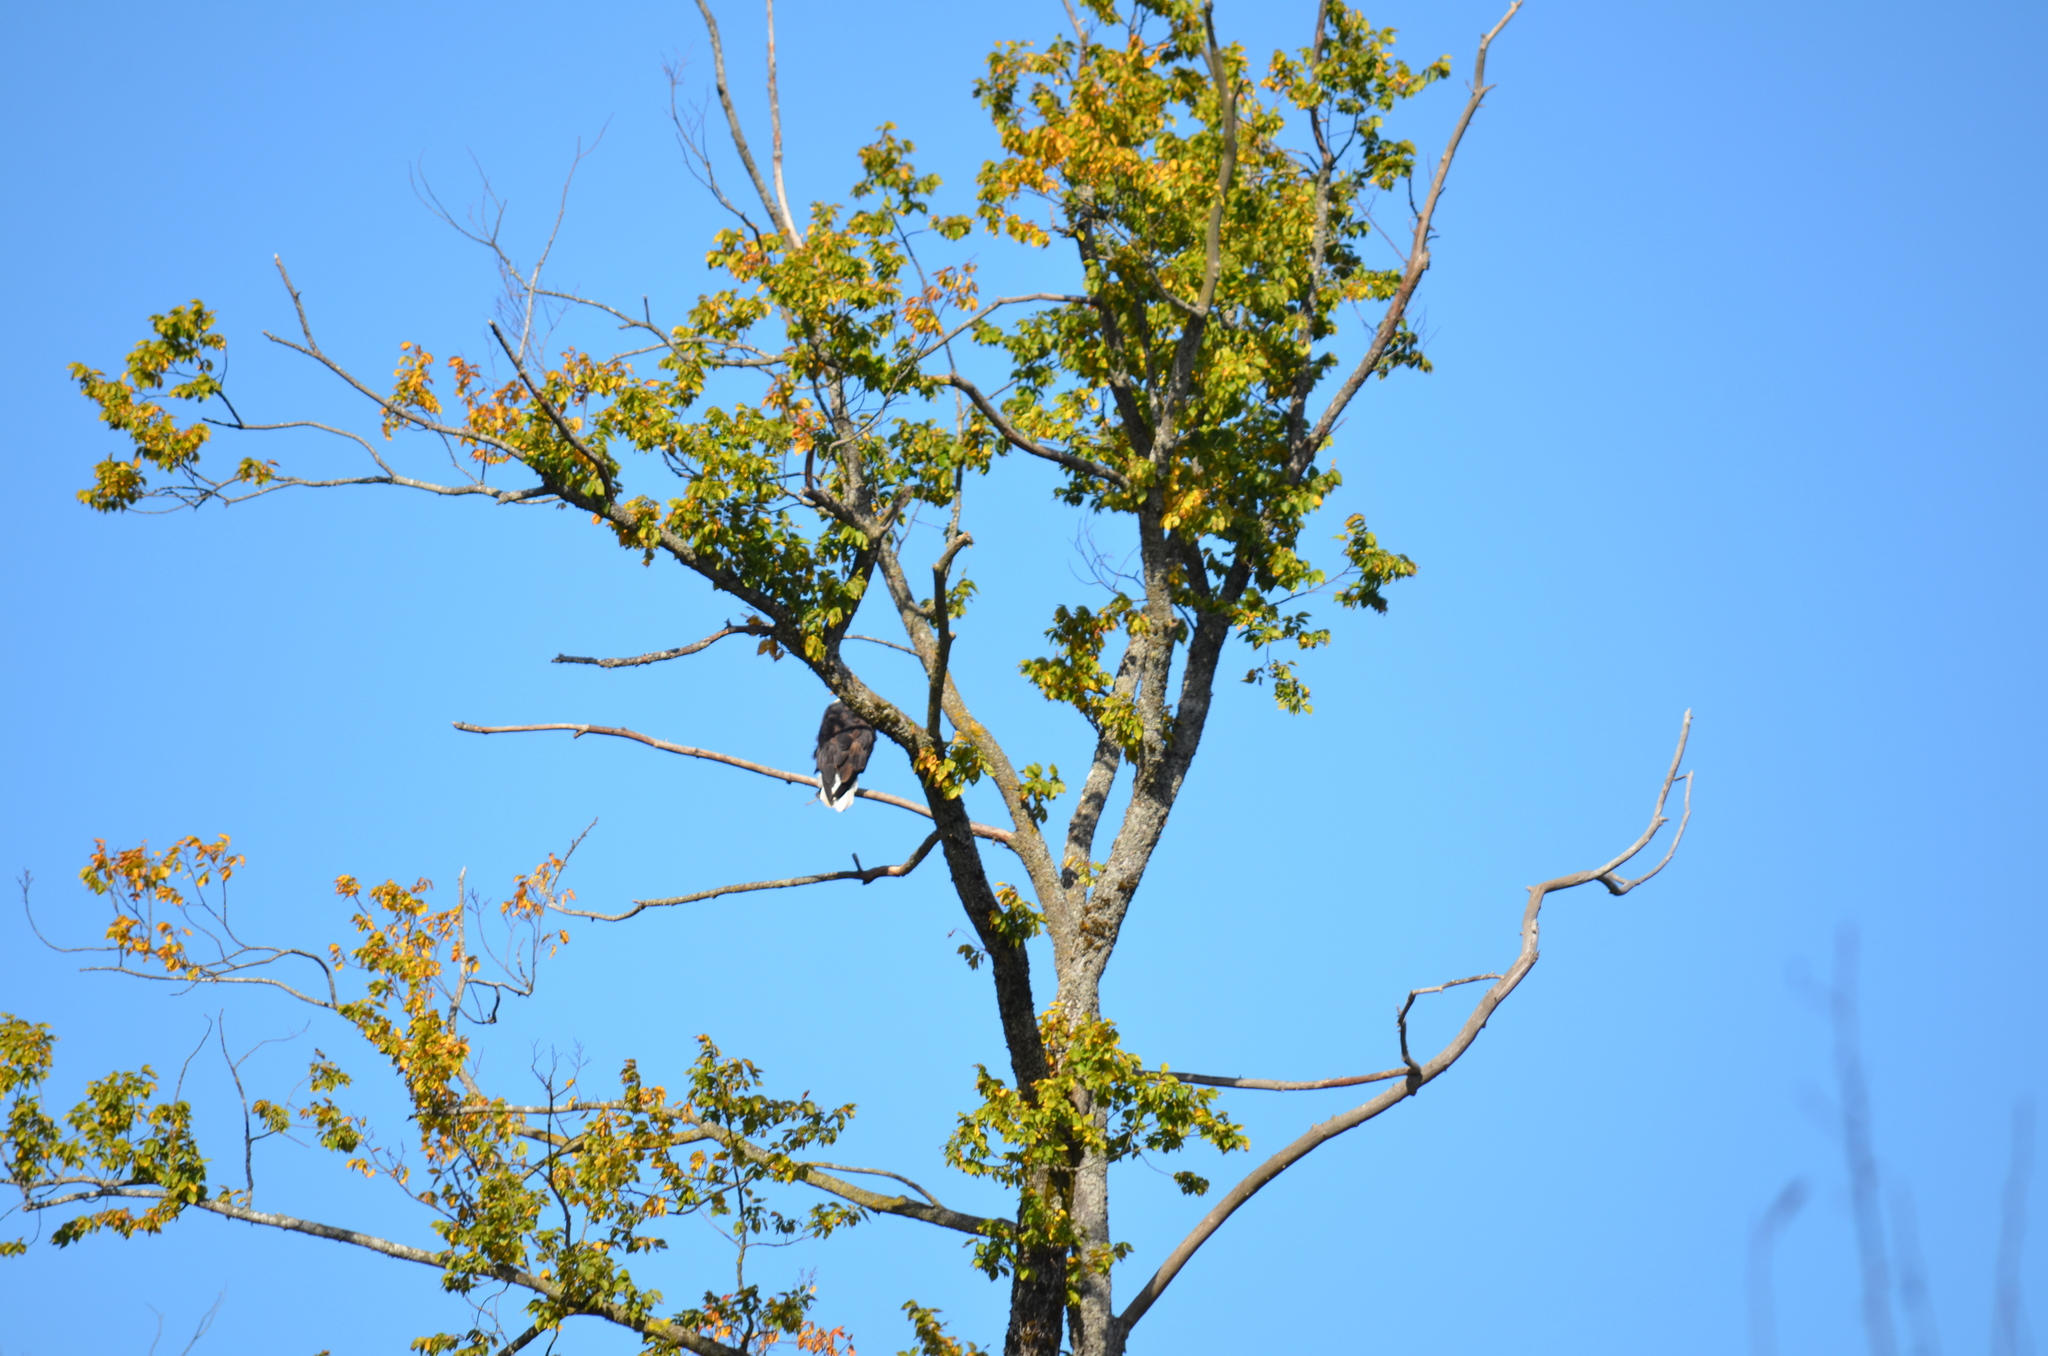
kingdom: Animalia
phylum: Chordata
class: Aves
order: Accipitriformes
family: Accipitridae
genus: Haliaeetus
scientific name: Haliaeetus leucocephalus
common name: Bald eagle
